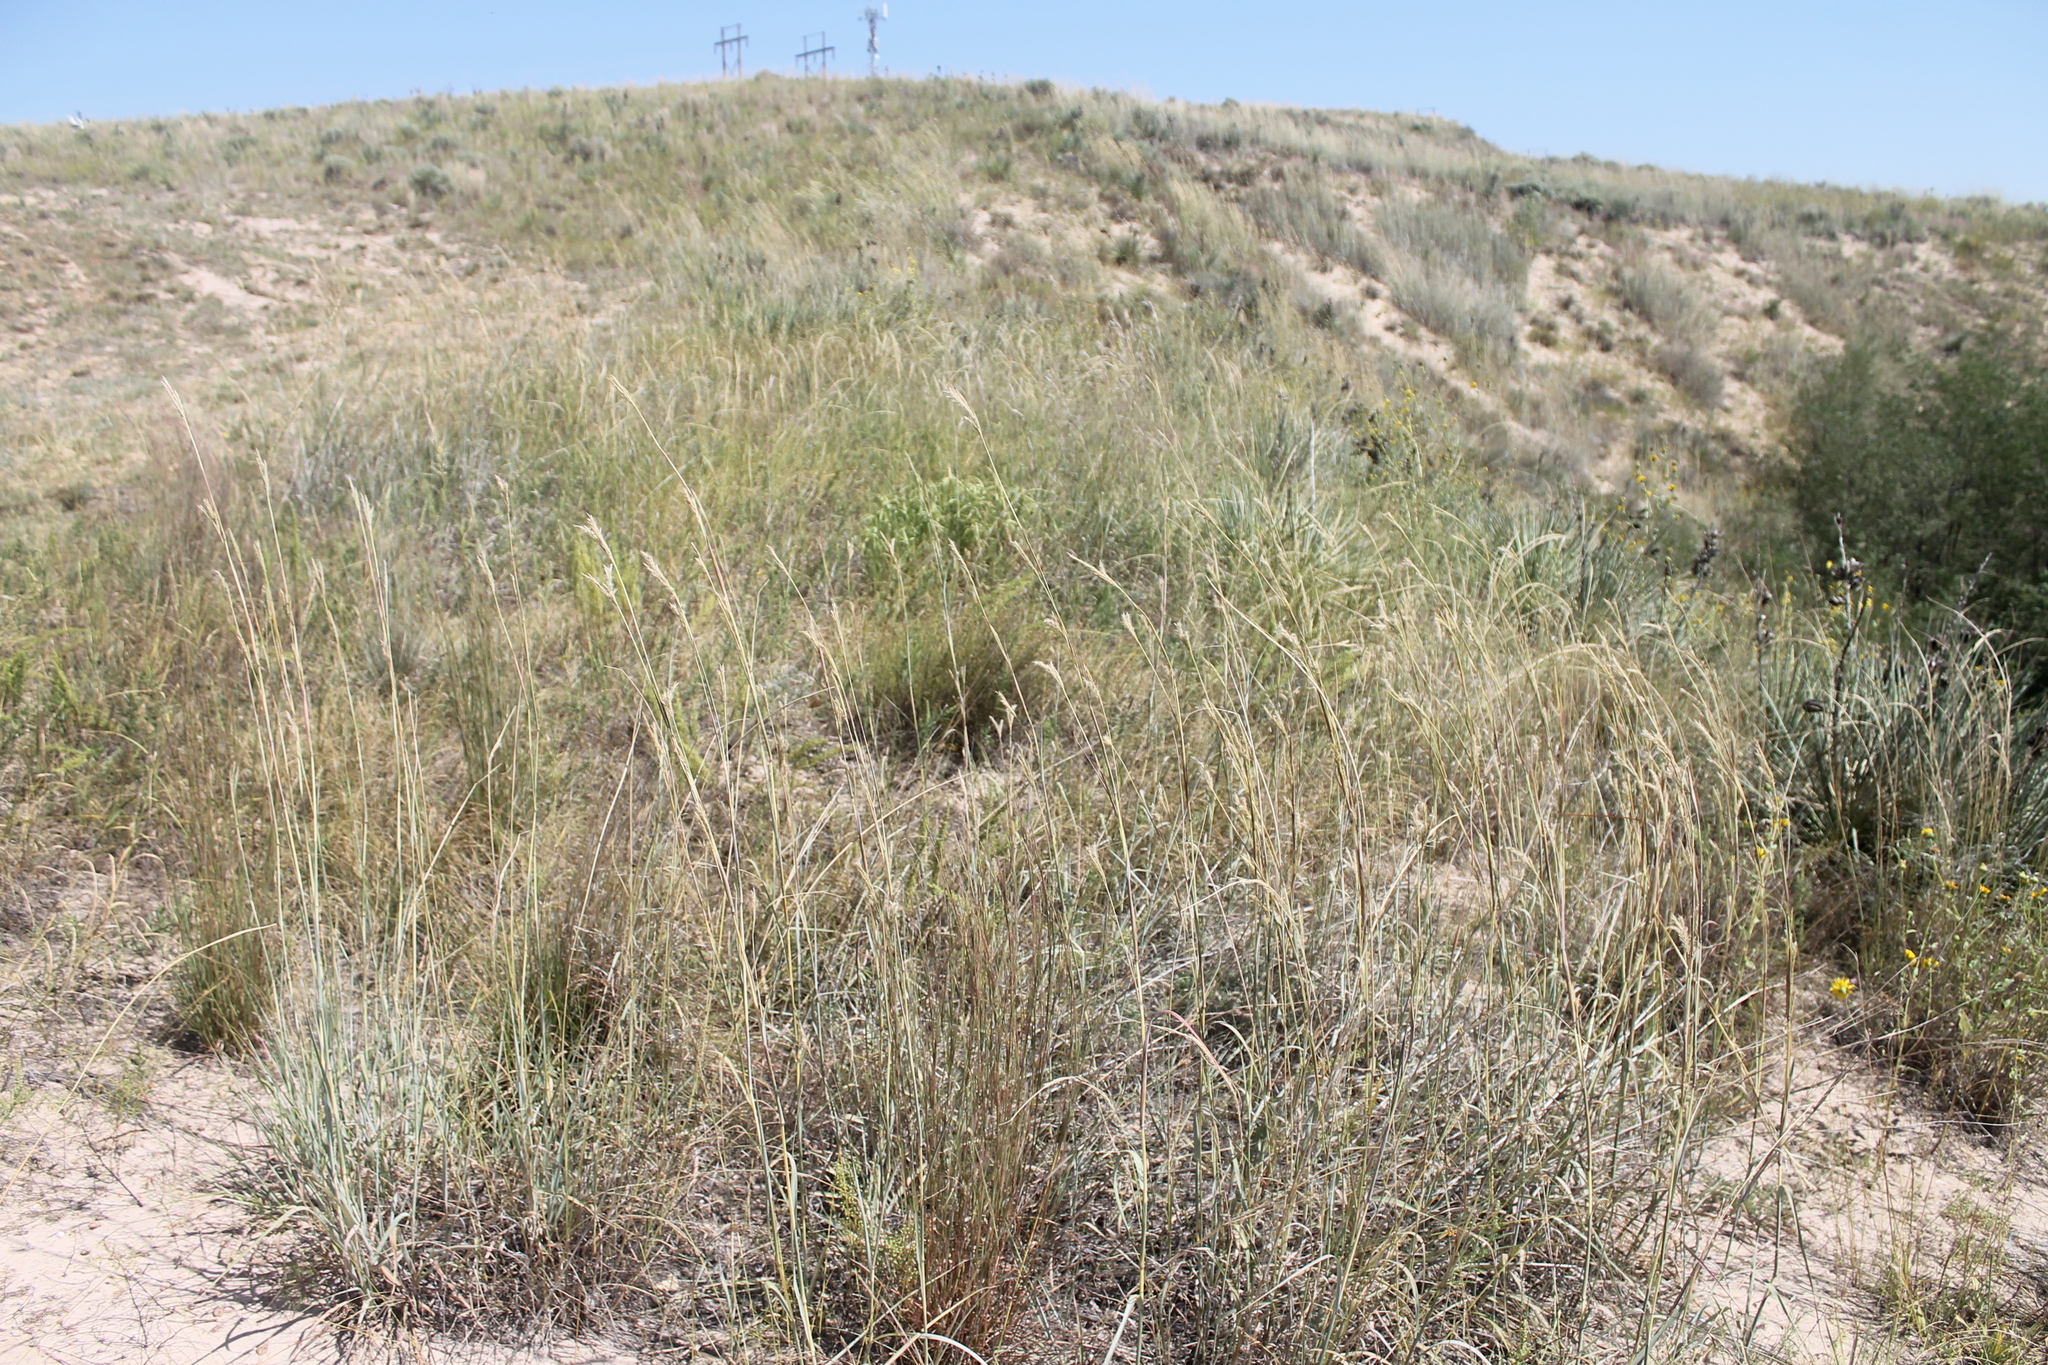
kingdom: Plantae
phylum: Tracheophyta
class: Liliopsida
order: Poales
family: Poaceae
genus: Andropogon
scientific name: Andropogon hallii
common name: Sand bluestem
